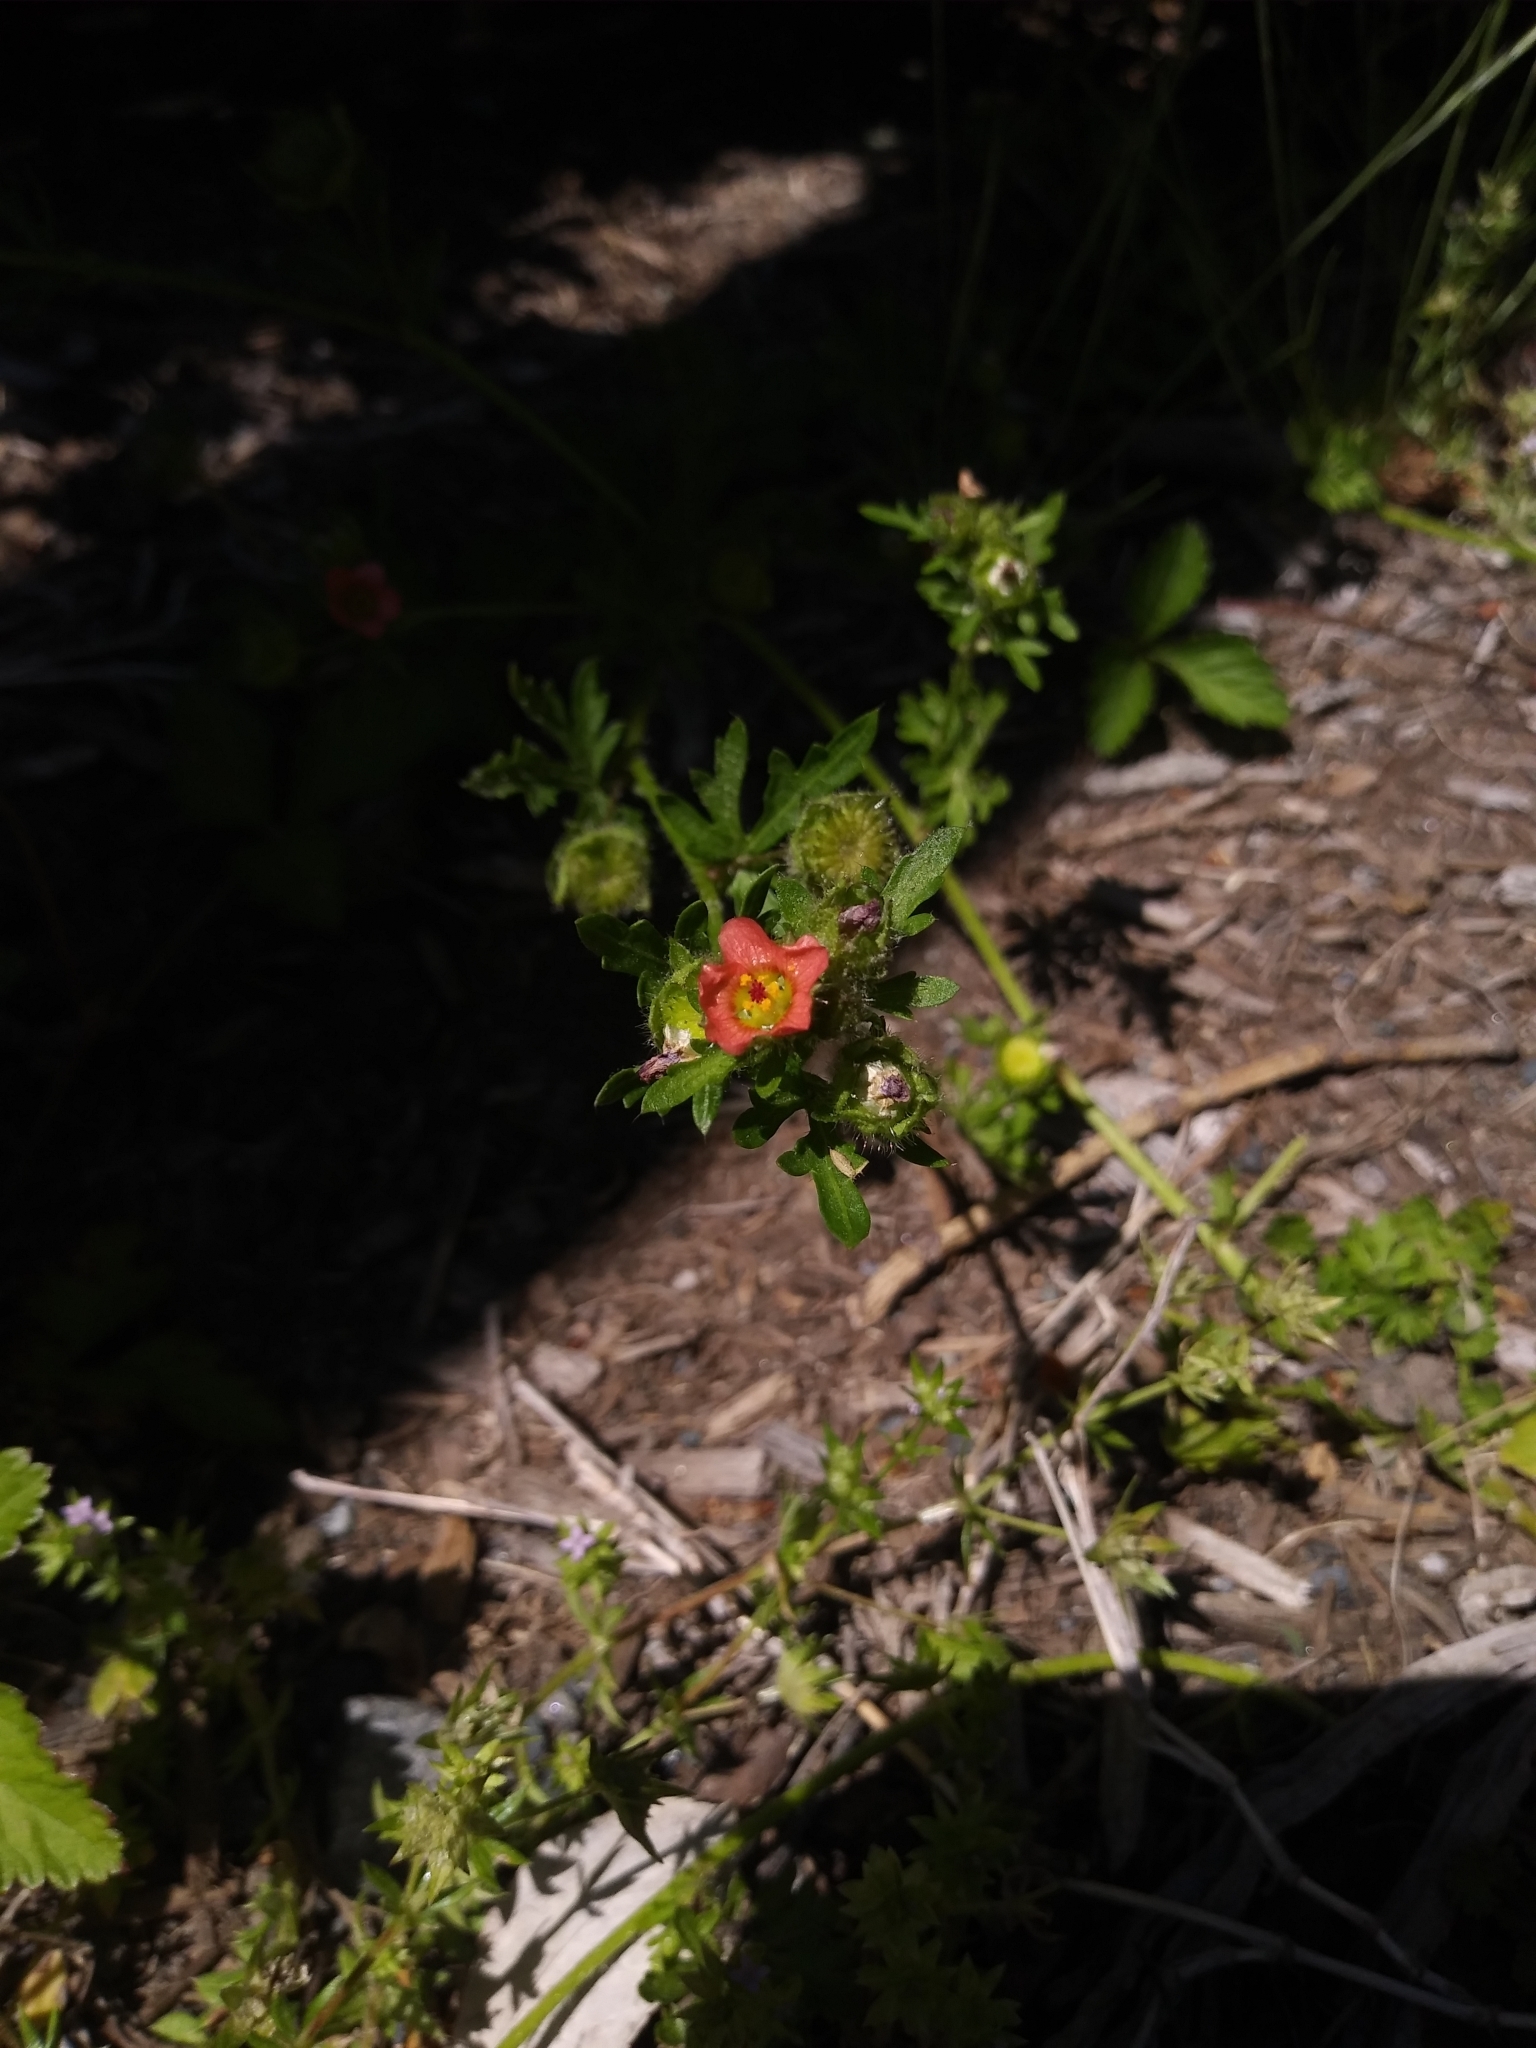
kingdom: Plantae
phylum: Tracheophyta
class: Magnoliopsida
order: Malvales
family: Malvaceae
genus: Modiola
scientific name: Modiola caroliniana
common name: Carolina bristlemallow
